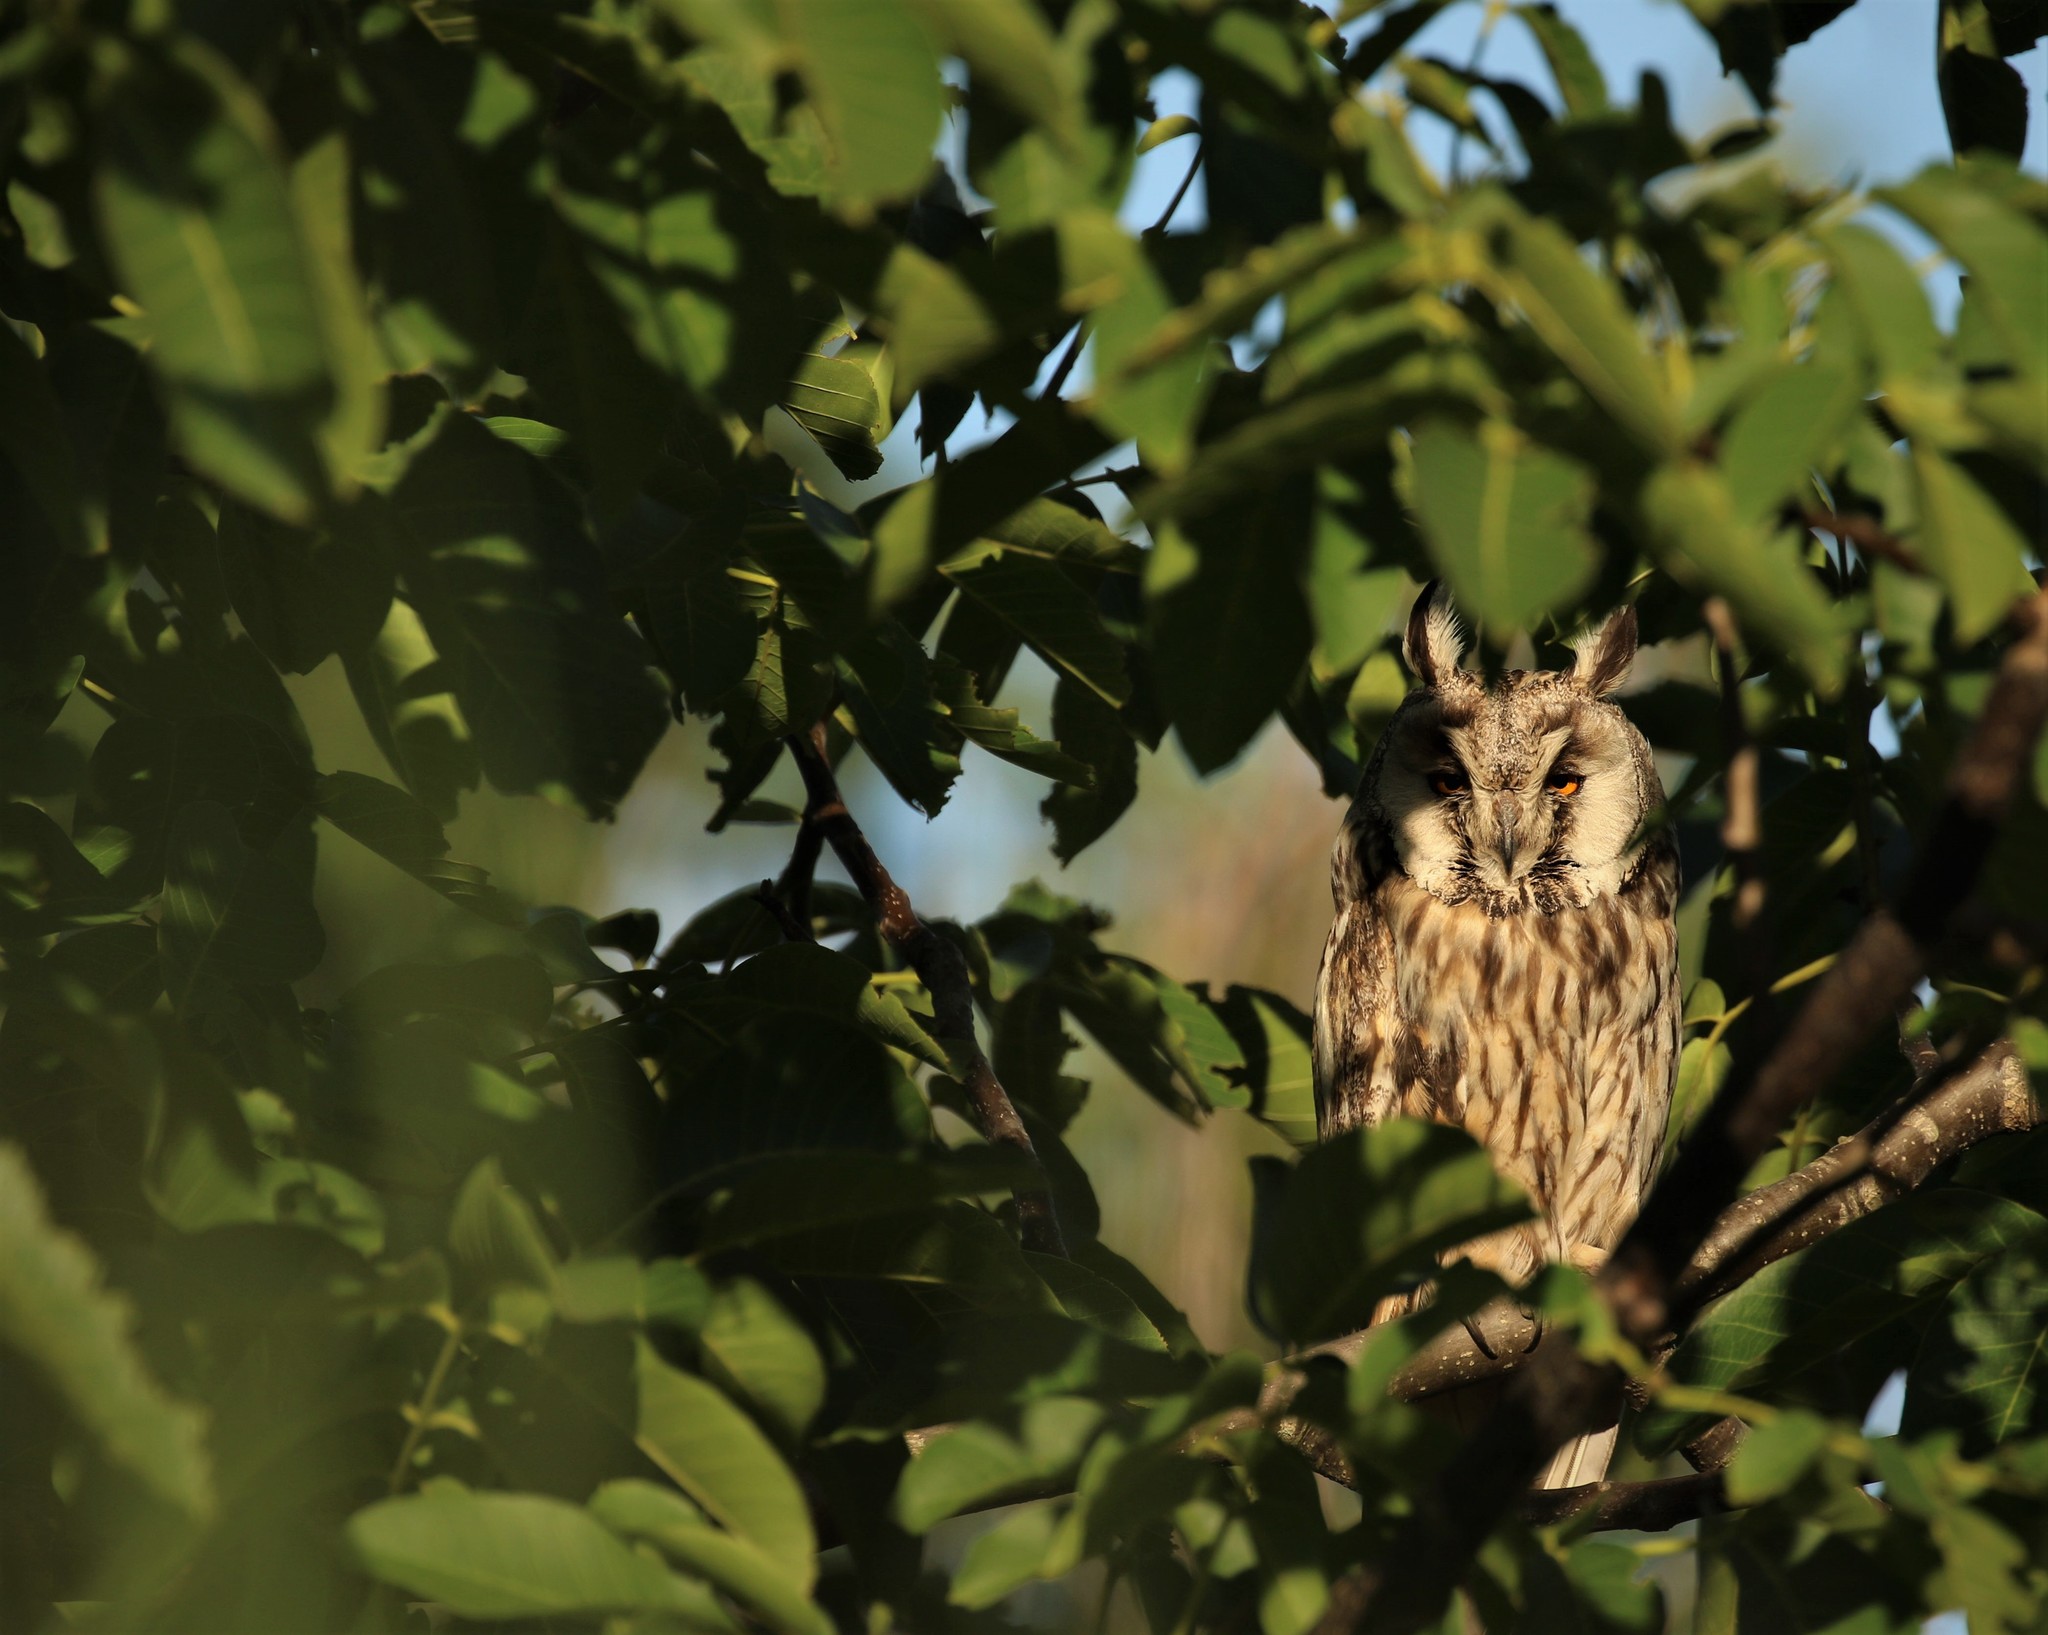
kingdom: Animalia
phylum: Chordata
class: Aves
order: Strigiformes
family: Strigidae
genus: Asio
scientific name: Asio otus
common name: Long-eared owl
